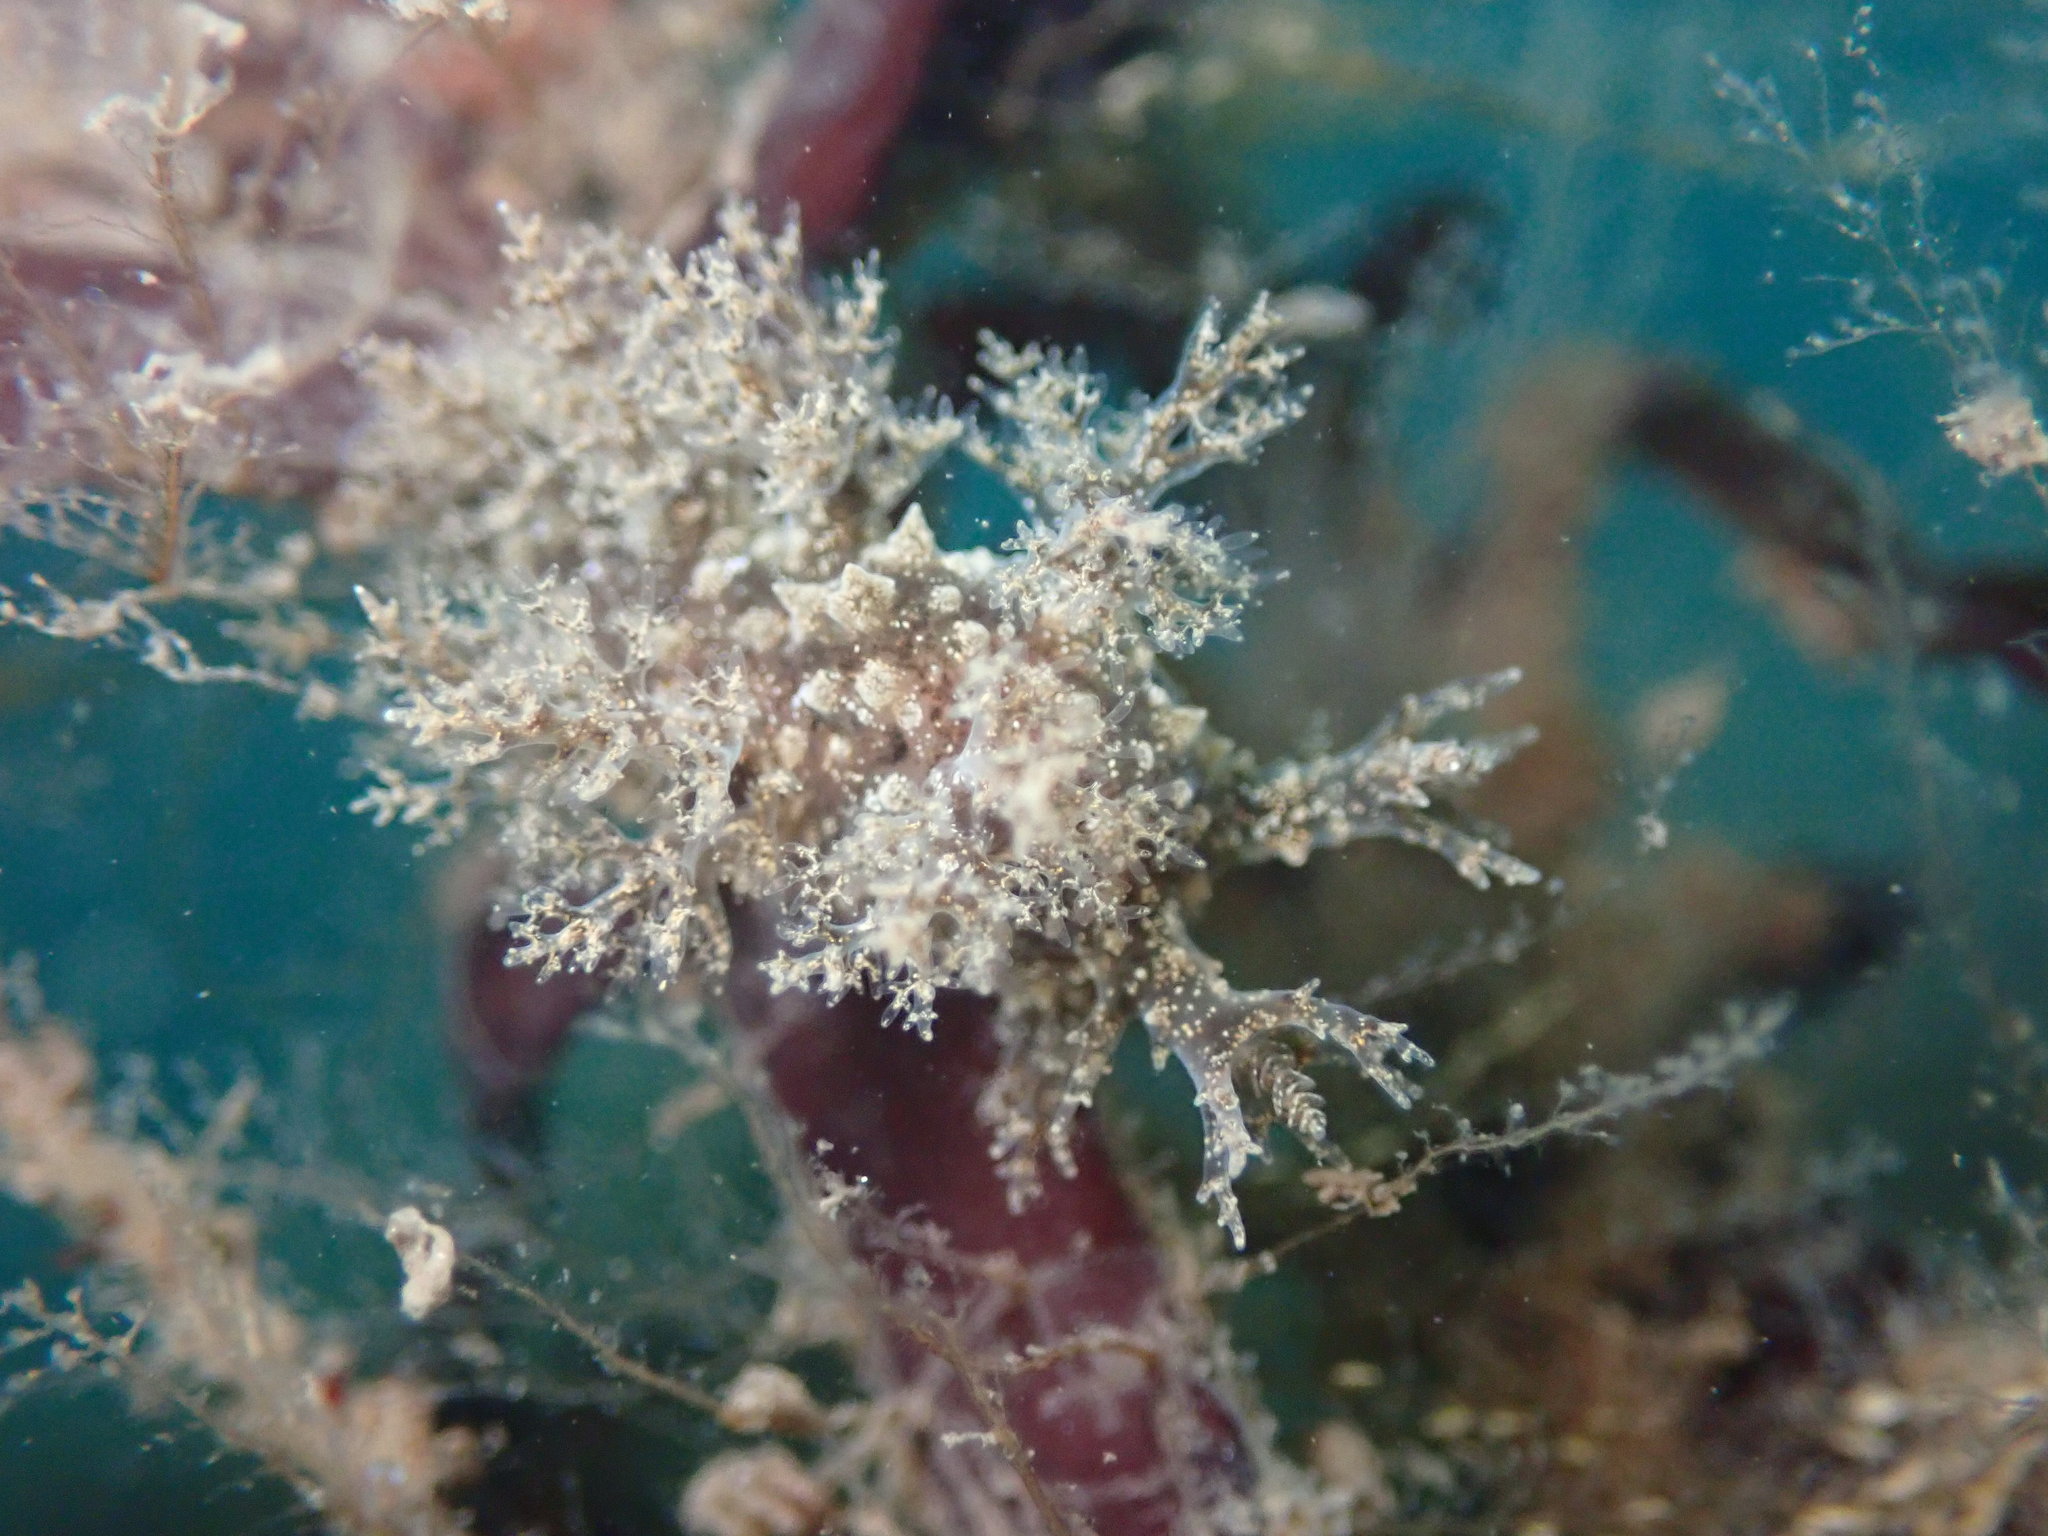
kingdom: Animalia
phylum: Mollusca
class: Gastropoda
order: Nudibranchia
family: Dendronotidae
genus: Dendronotus
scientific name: Dendronotus venustus
